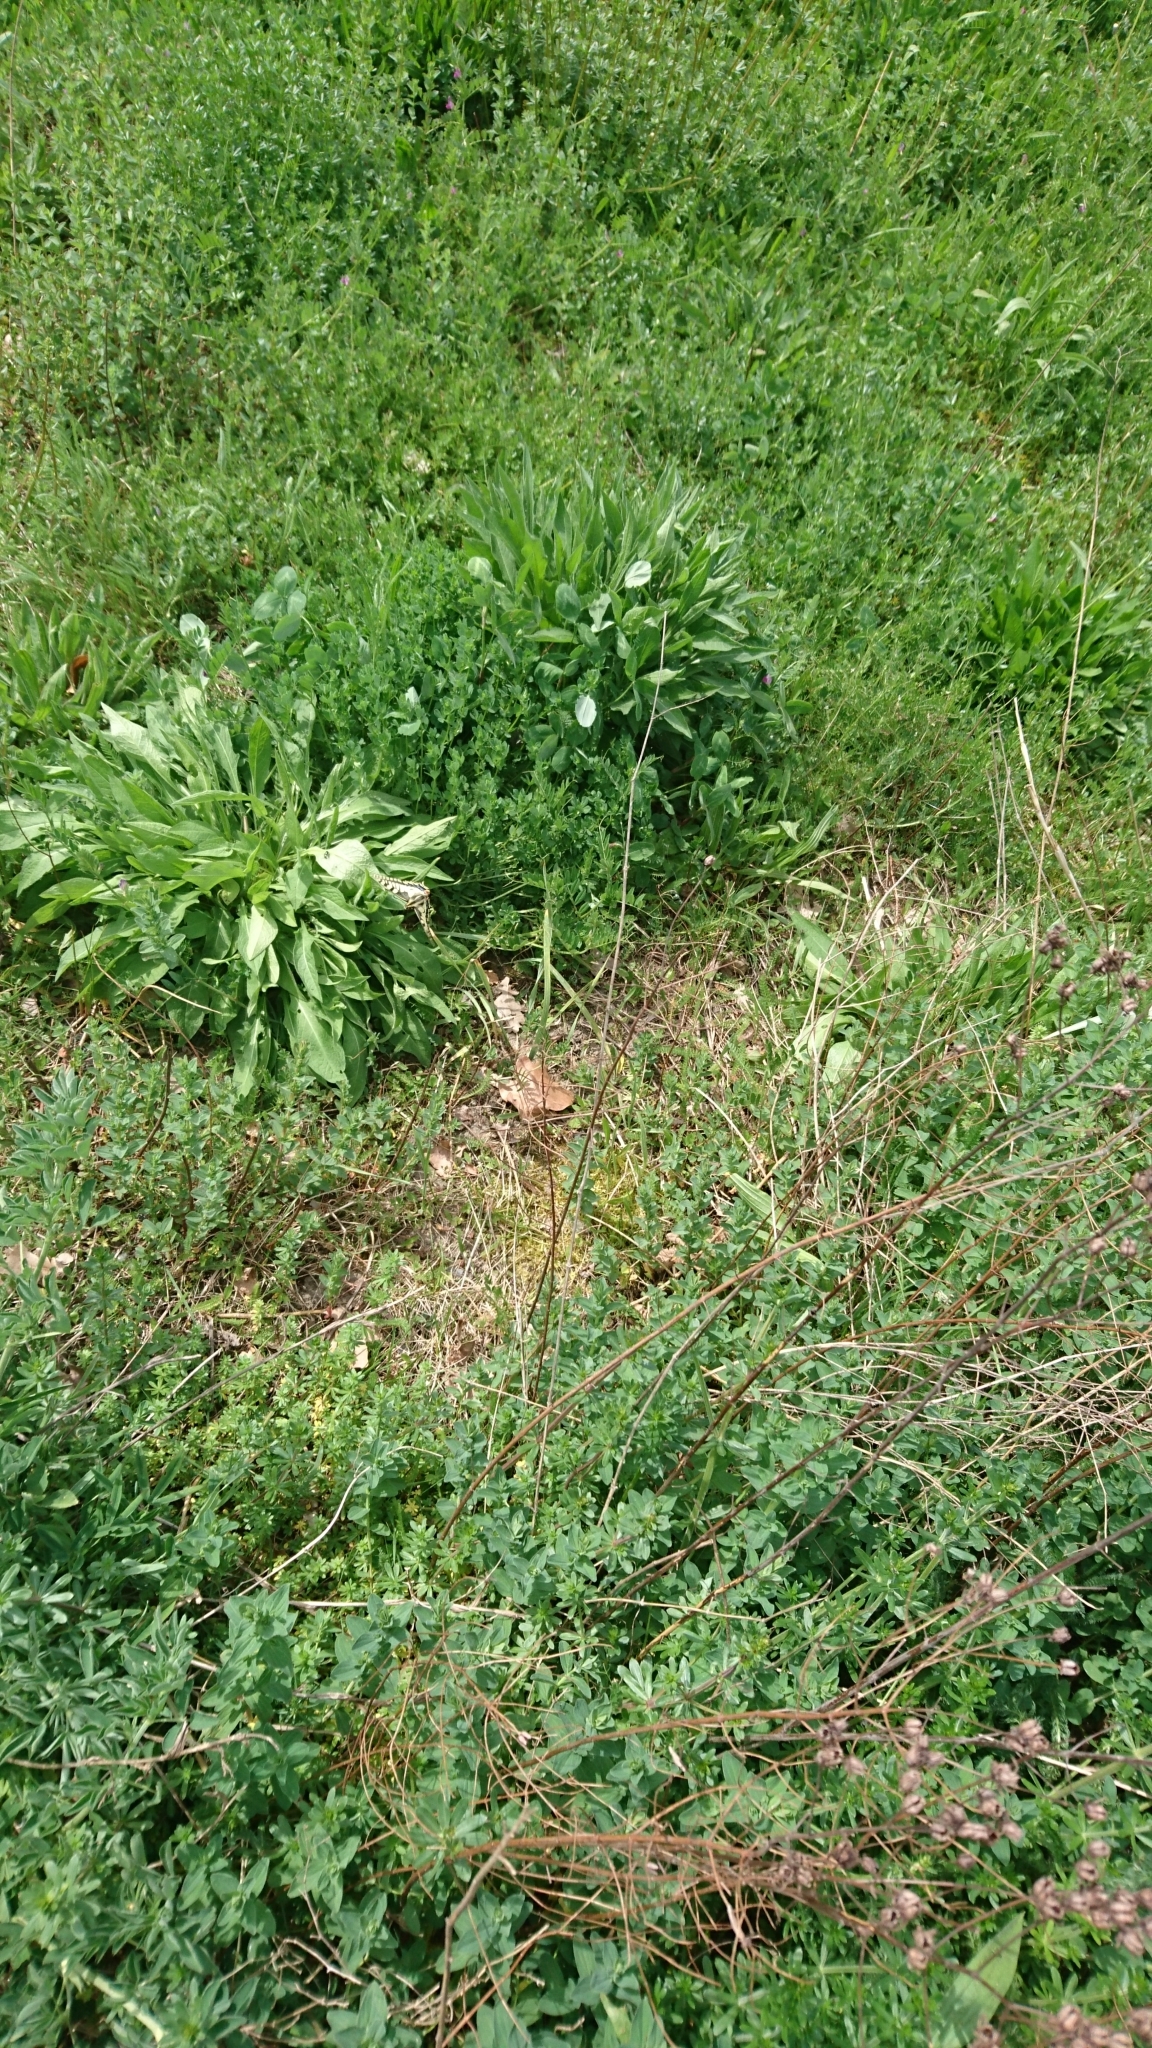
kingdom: Animalia
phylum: Arthropoda
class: Insecta
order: Lepidoptera
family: Papilionidae
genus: Papilio
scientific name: Papilio machaon
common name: Swallowtail
